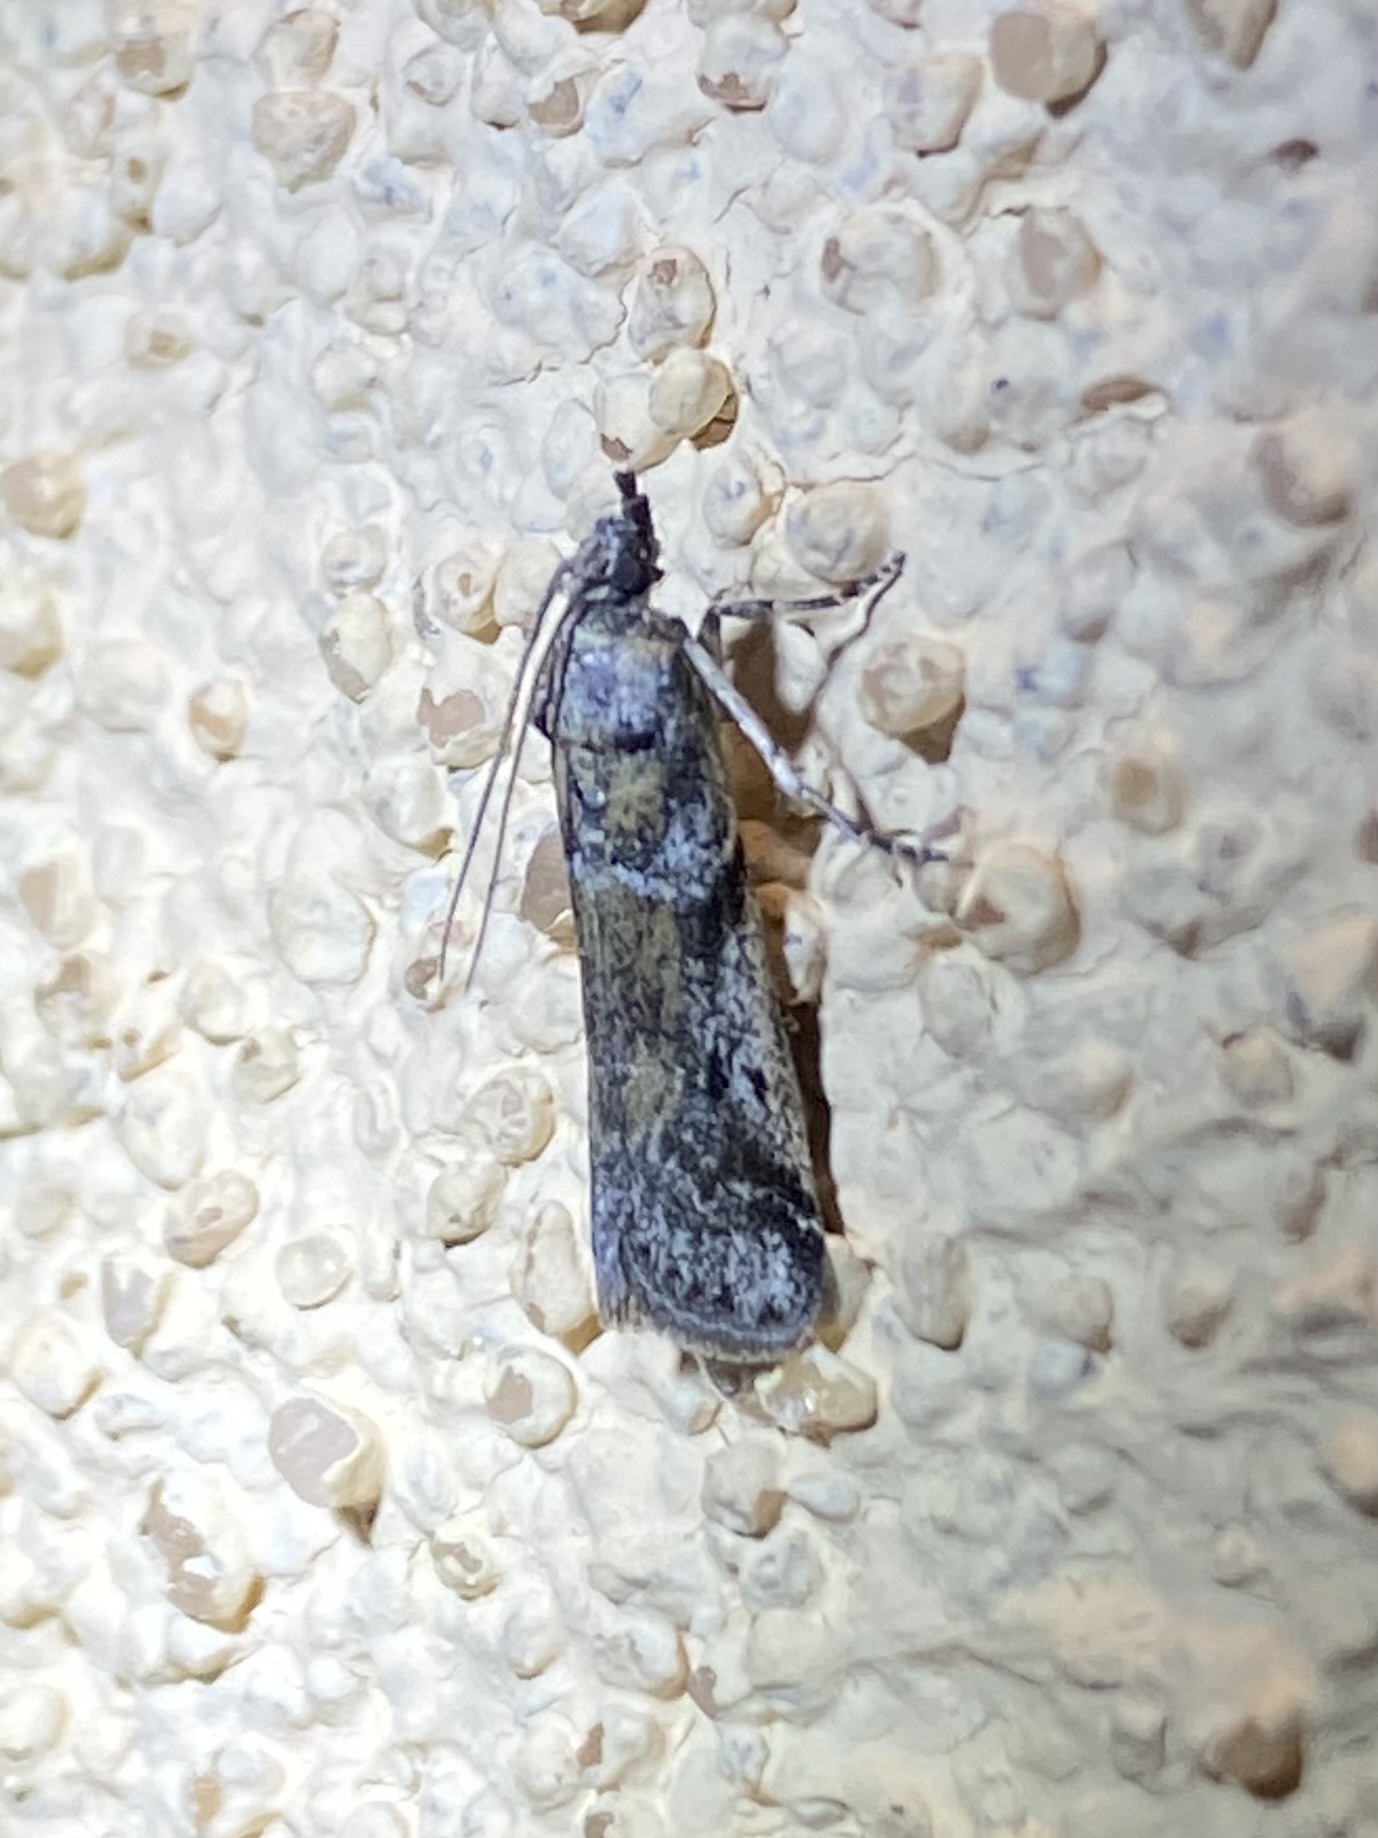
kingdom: Animalia
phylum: Arthropoda
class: Insecta
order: Lepidoptera
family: Pyralidae
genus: Laetilia
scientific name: Laetilia coccidivora
